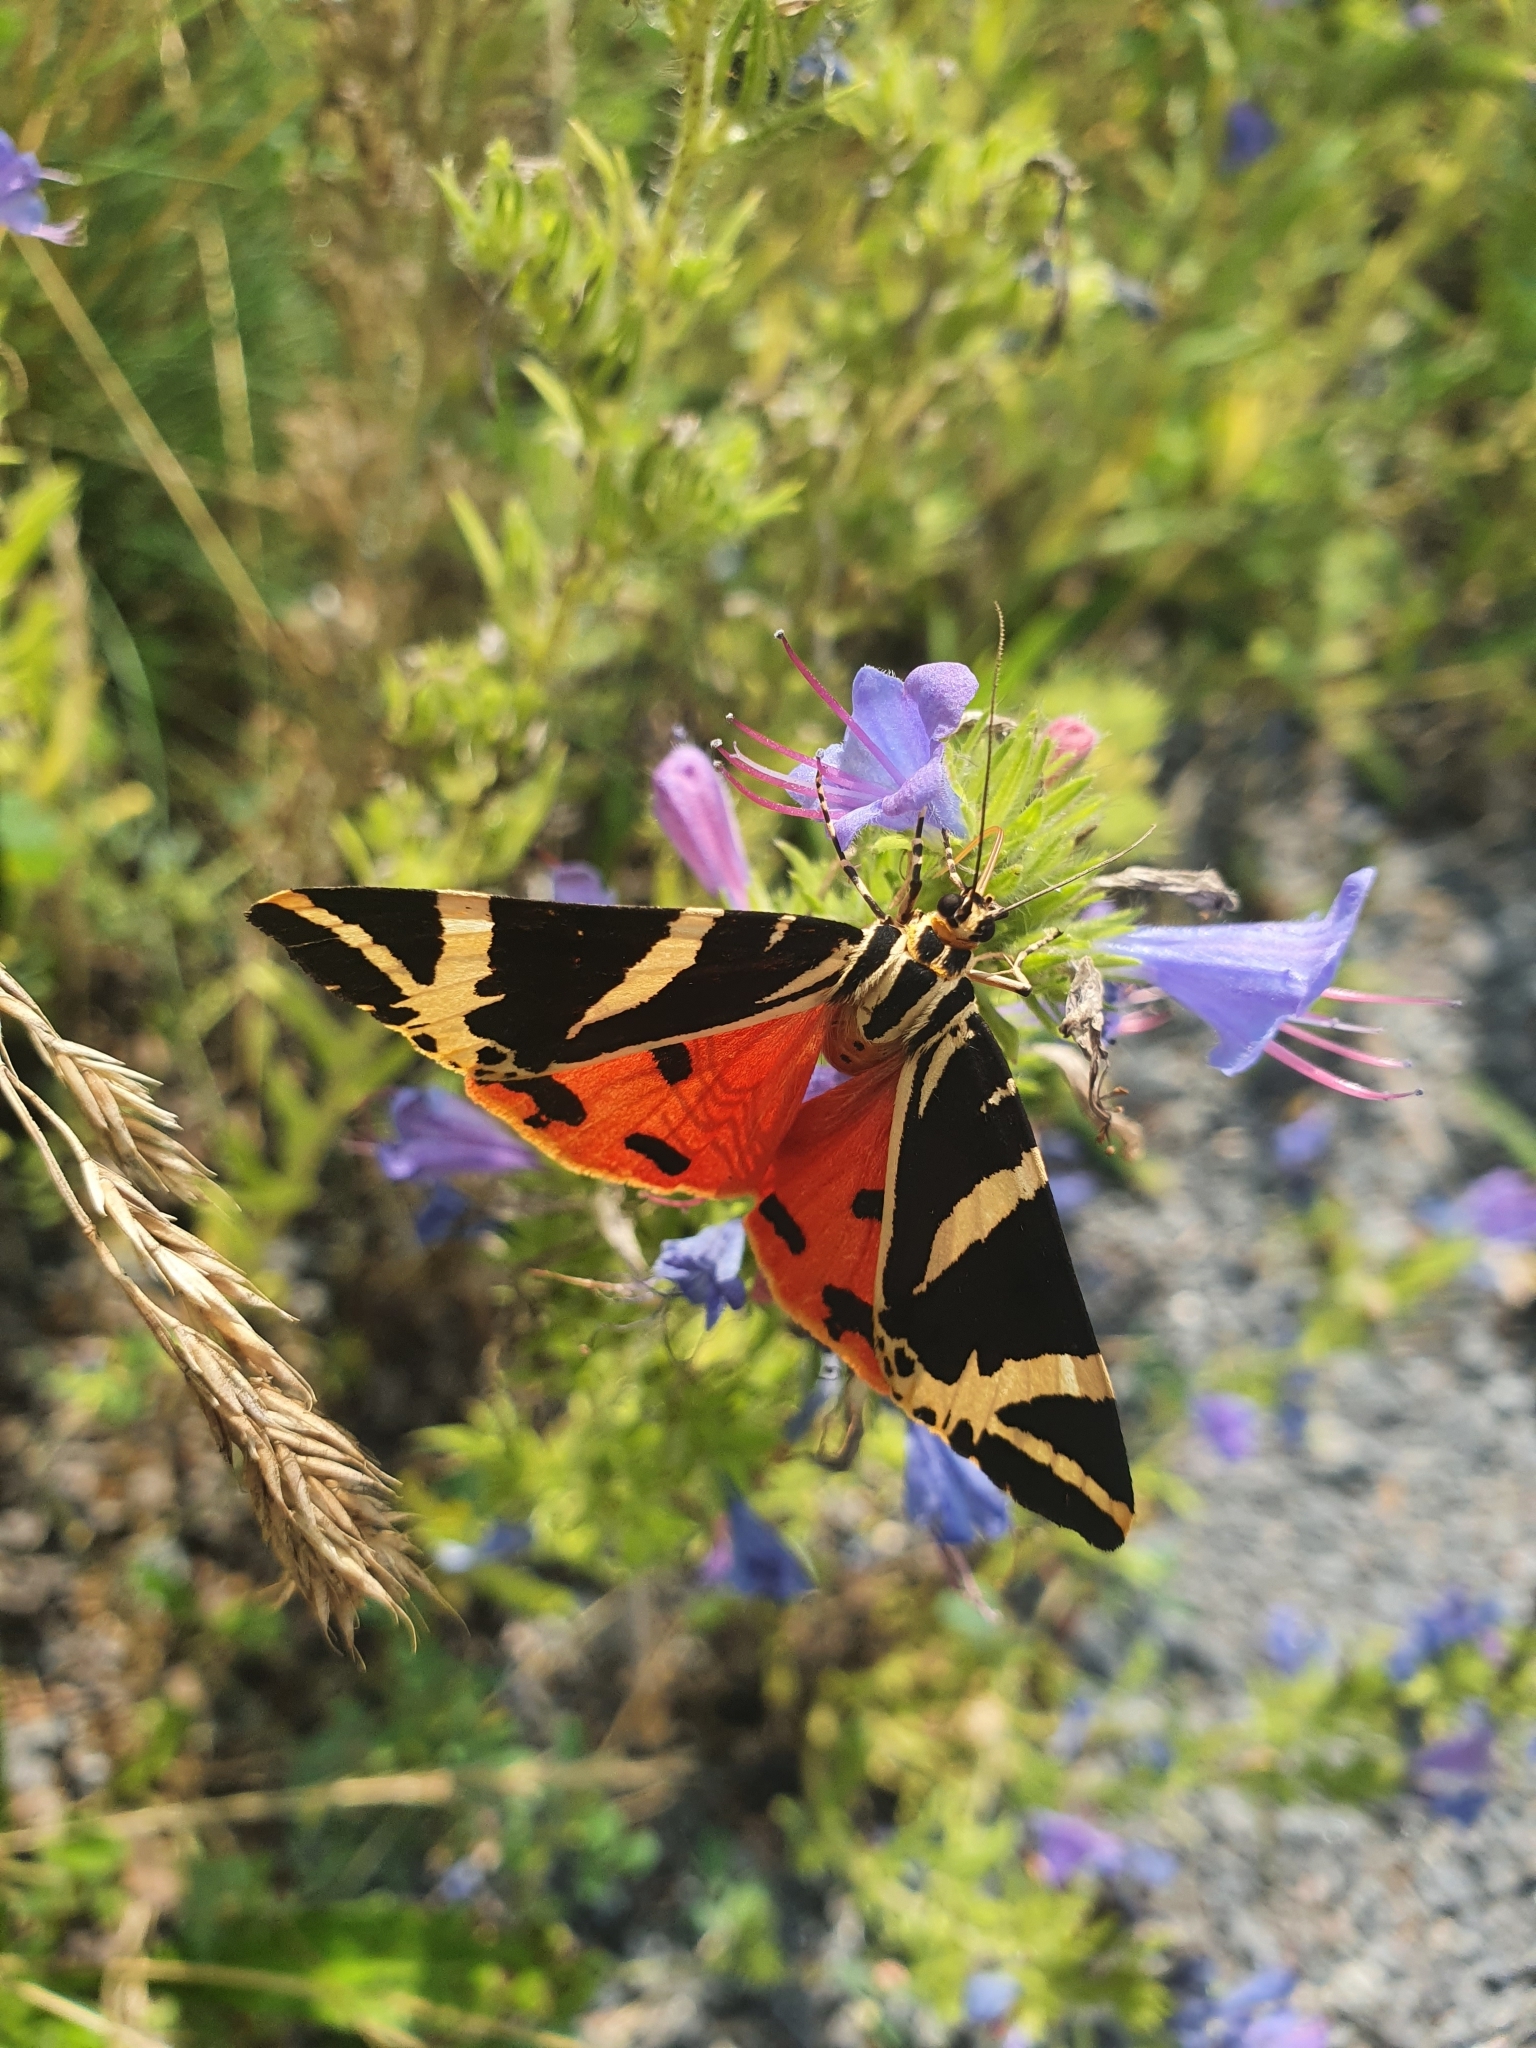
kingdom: Animalia
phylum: Arthropoda
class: Insecta
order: Lepidoptera
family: Erebidae
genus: Euplagia
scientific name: Euplagia quadripunctaria
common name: Jersey tiger
